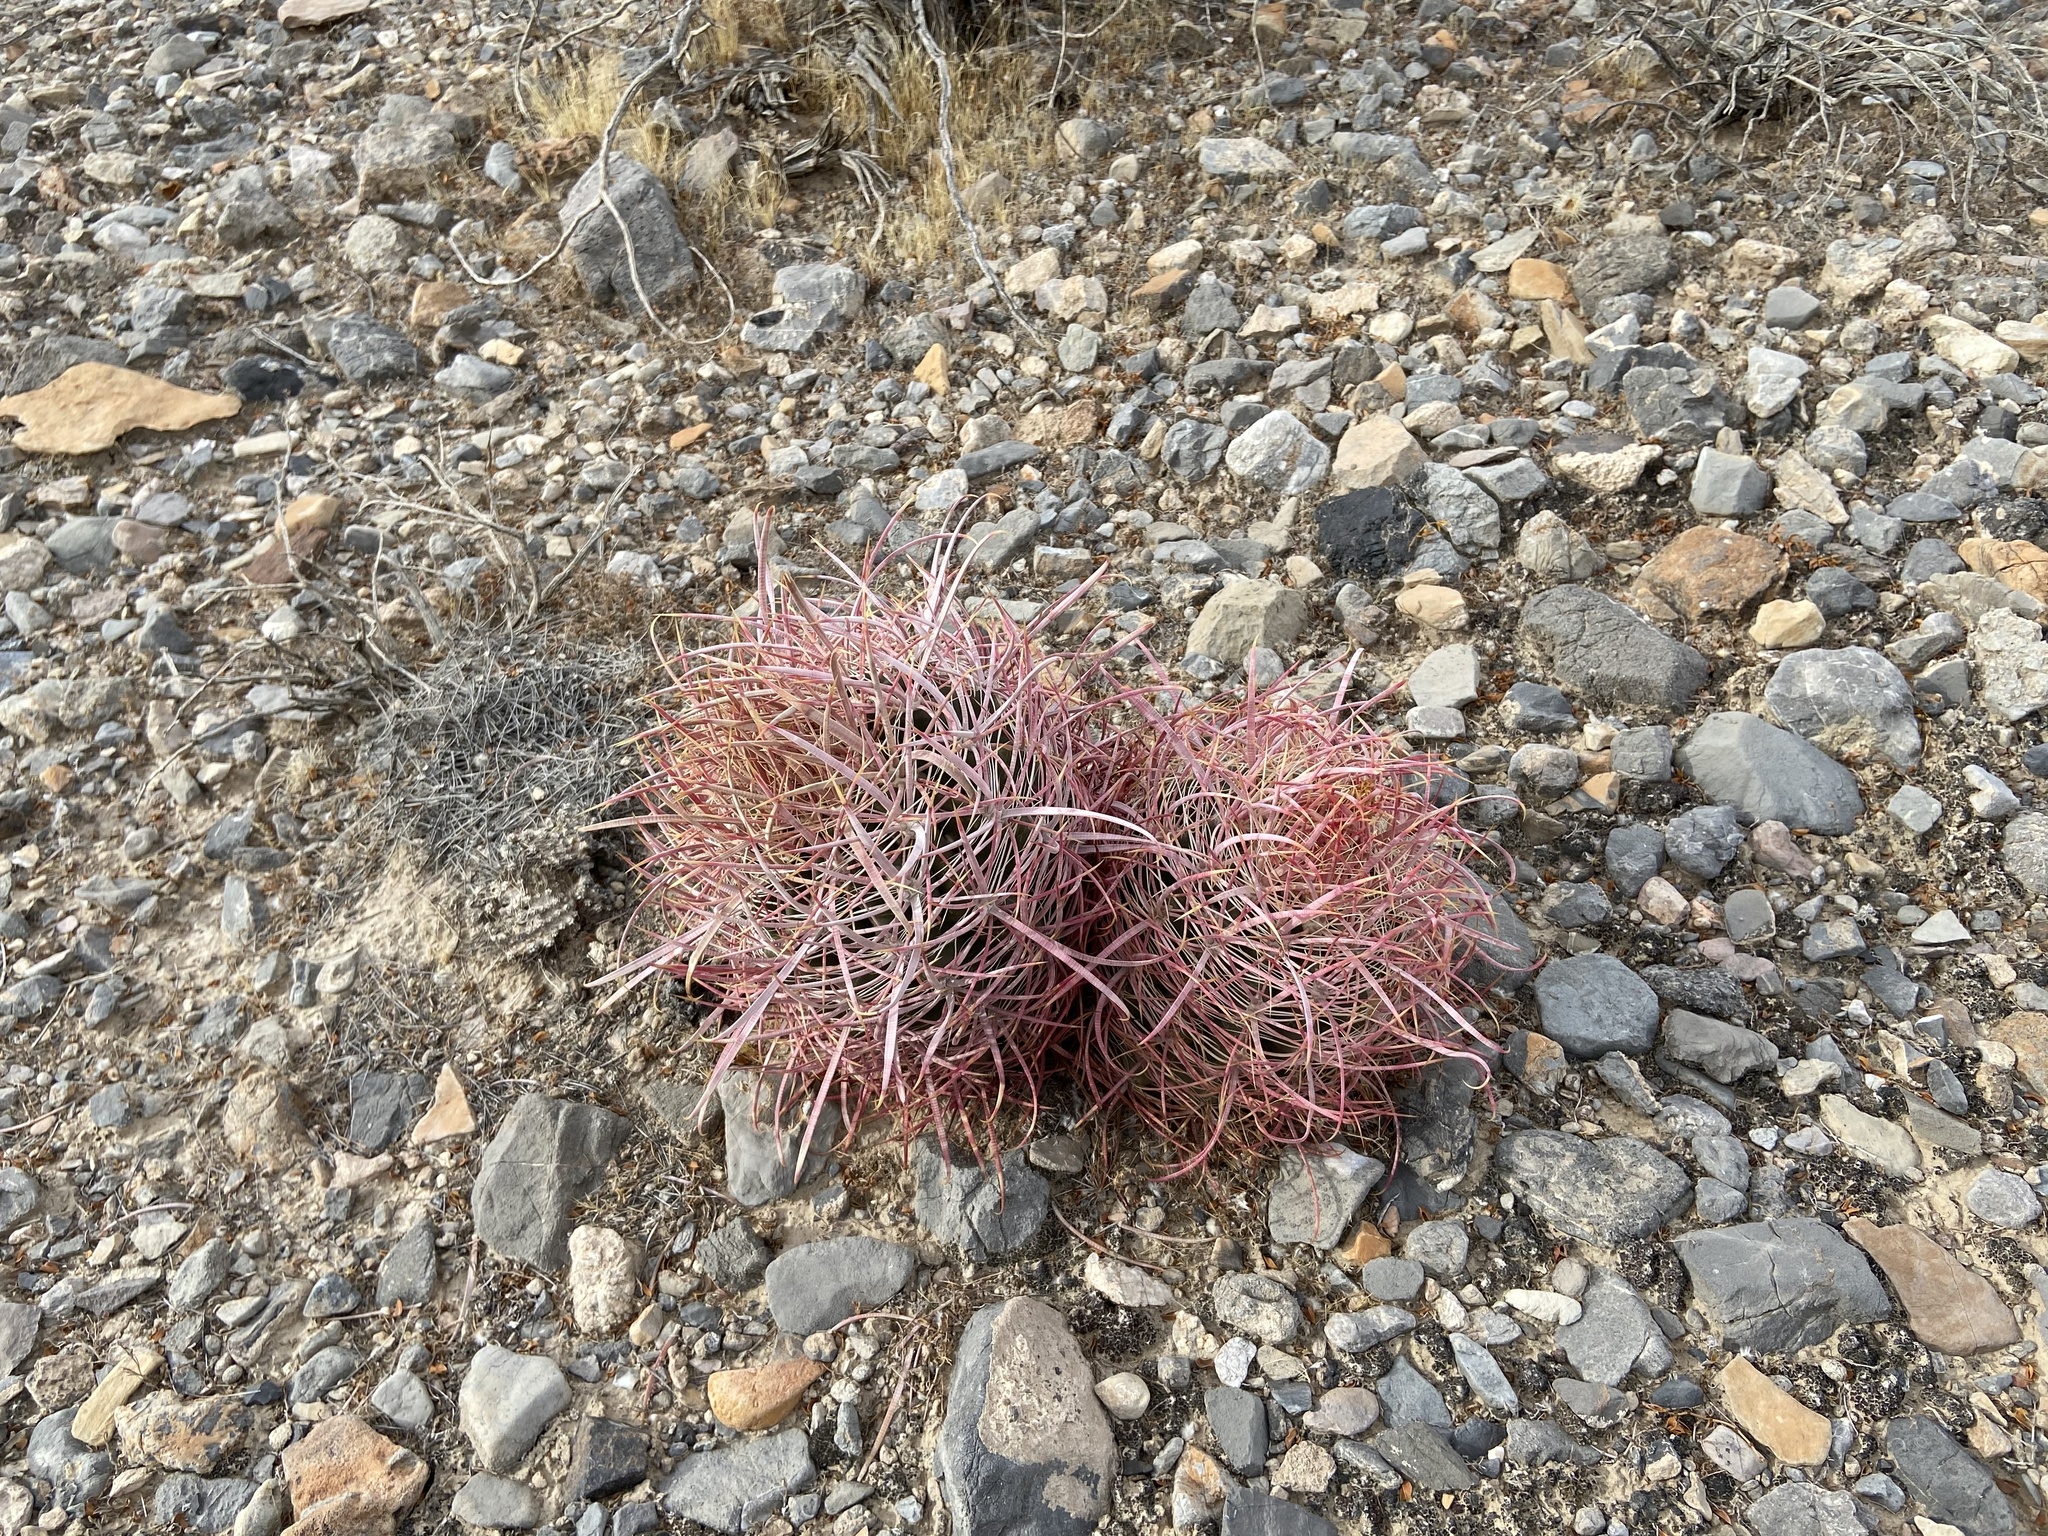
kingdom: Plantae
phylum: Tracheophyta
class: Magnoliopsida
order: Caryophyllales
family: Cactaceae
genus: Ferocactus
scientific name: Ferocactus cylindraceus
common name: California barrel cactus
